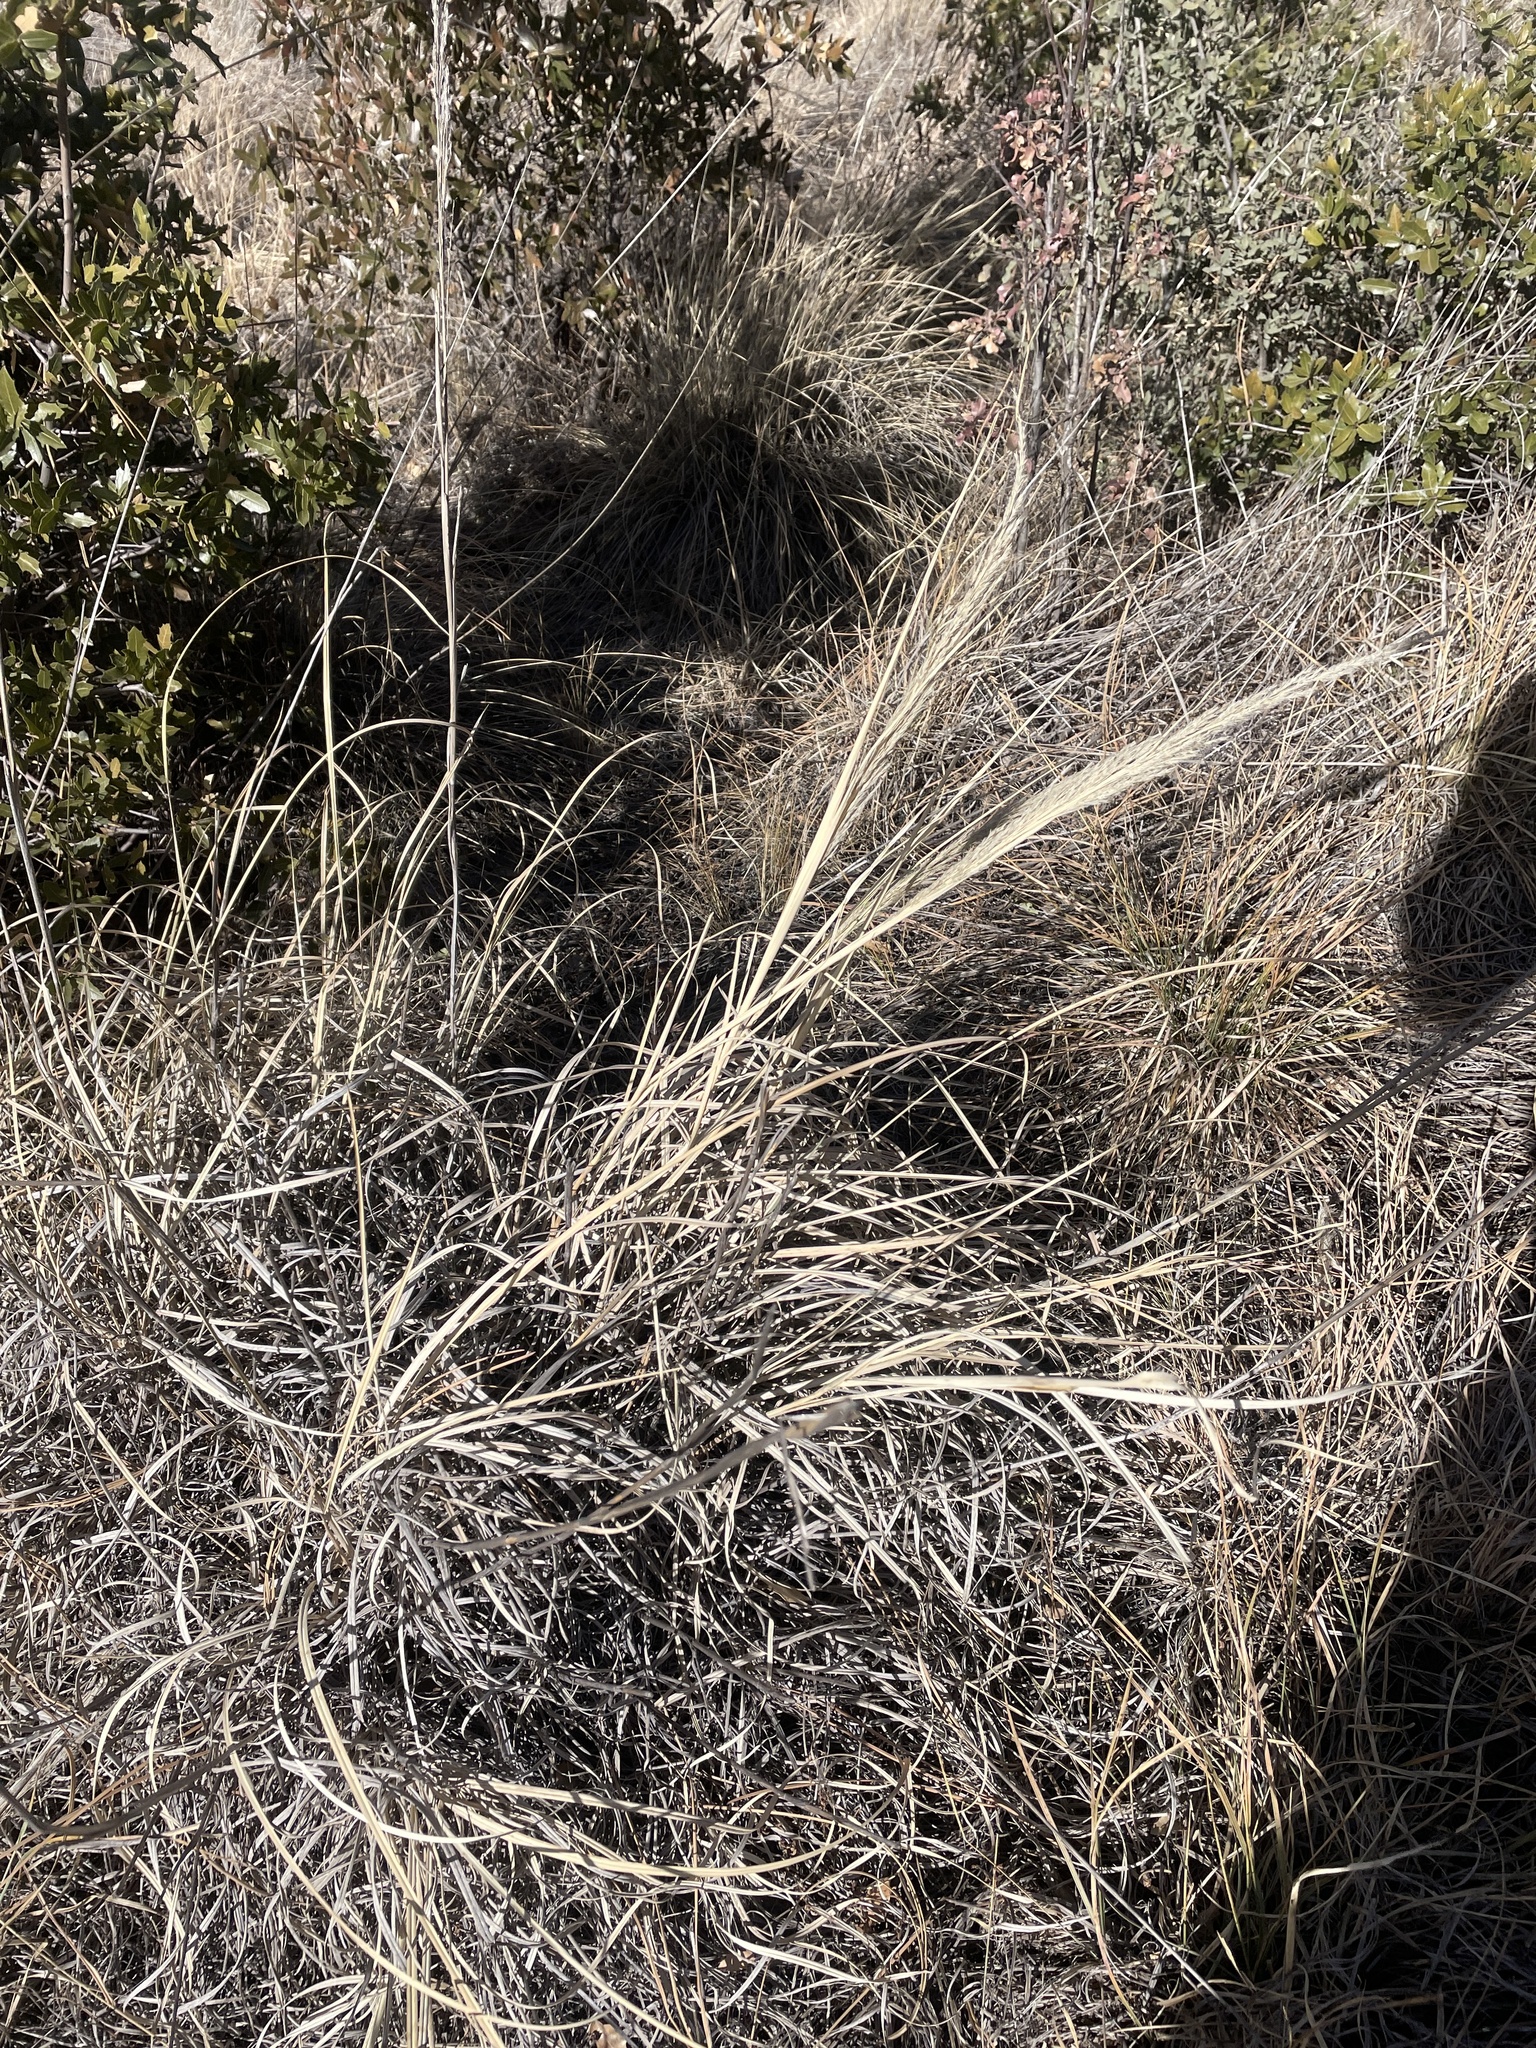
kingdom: Plantae
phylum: Tracheophyta
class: Liliopsida
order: Poales
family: Poaceae
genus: Muhlenbergia
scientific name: Muhlenbergia emersleyi
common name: Bull grass
